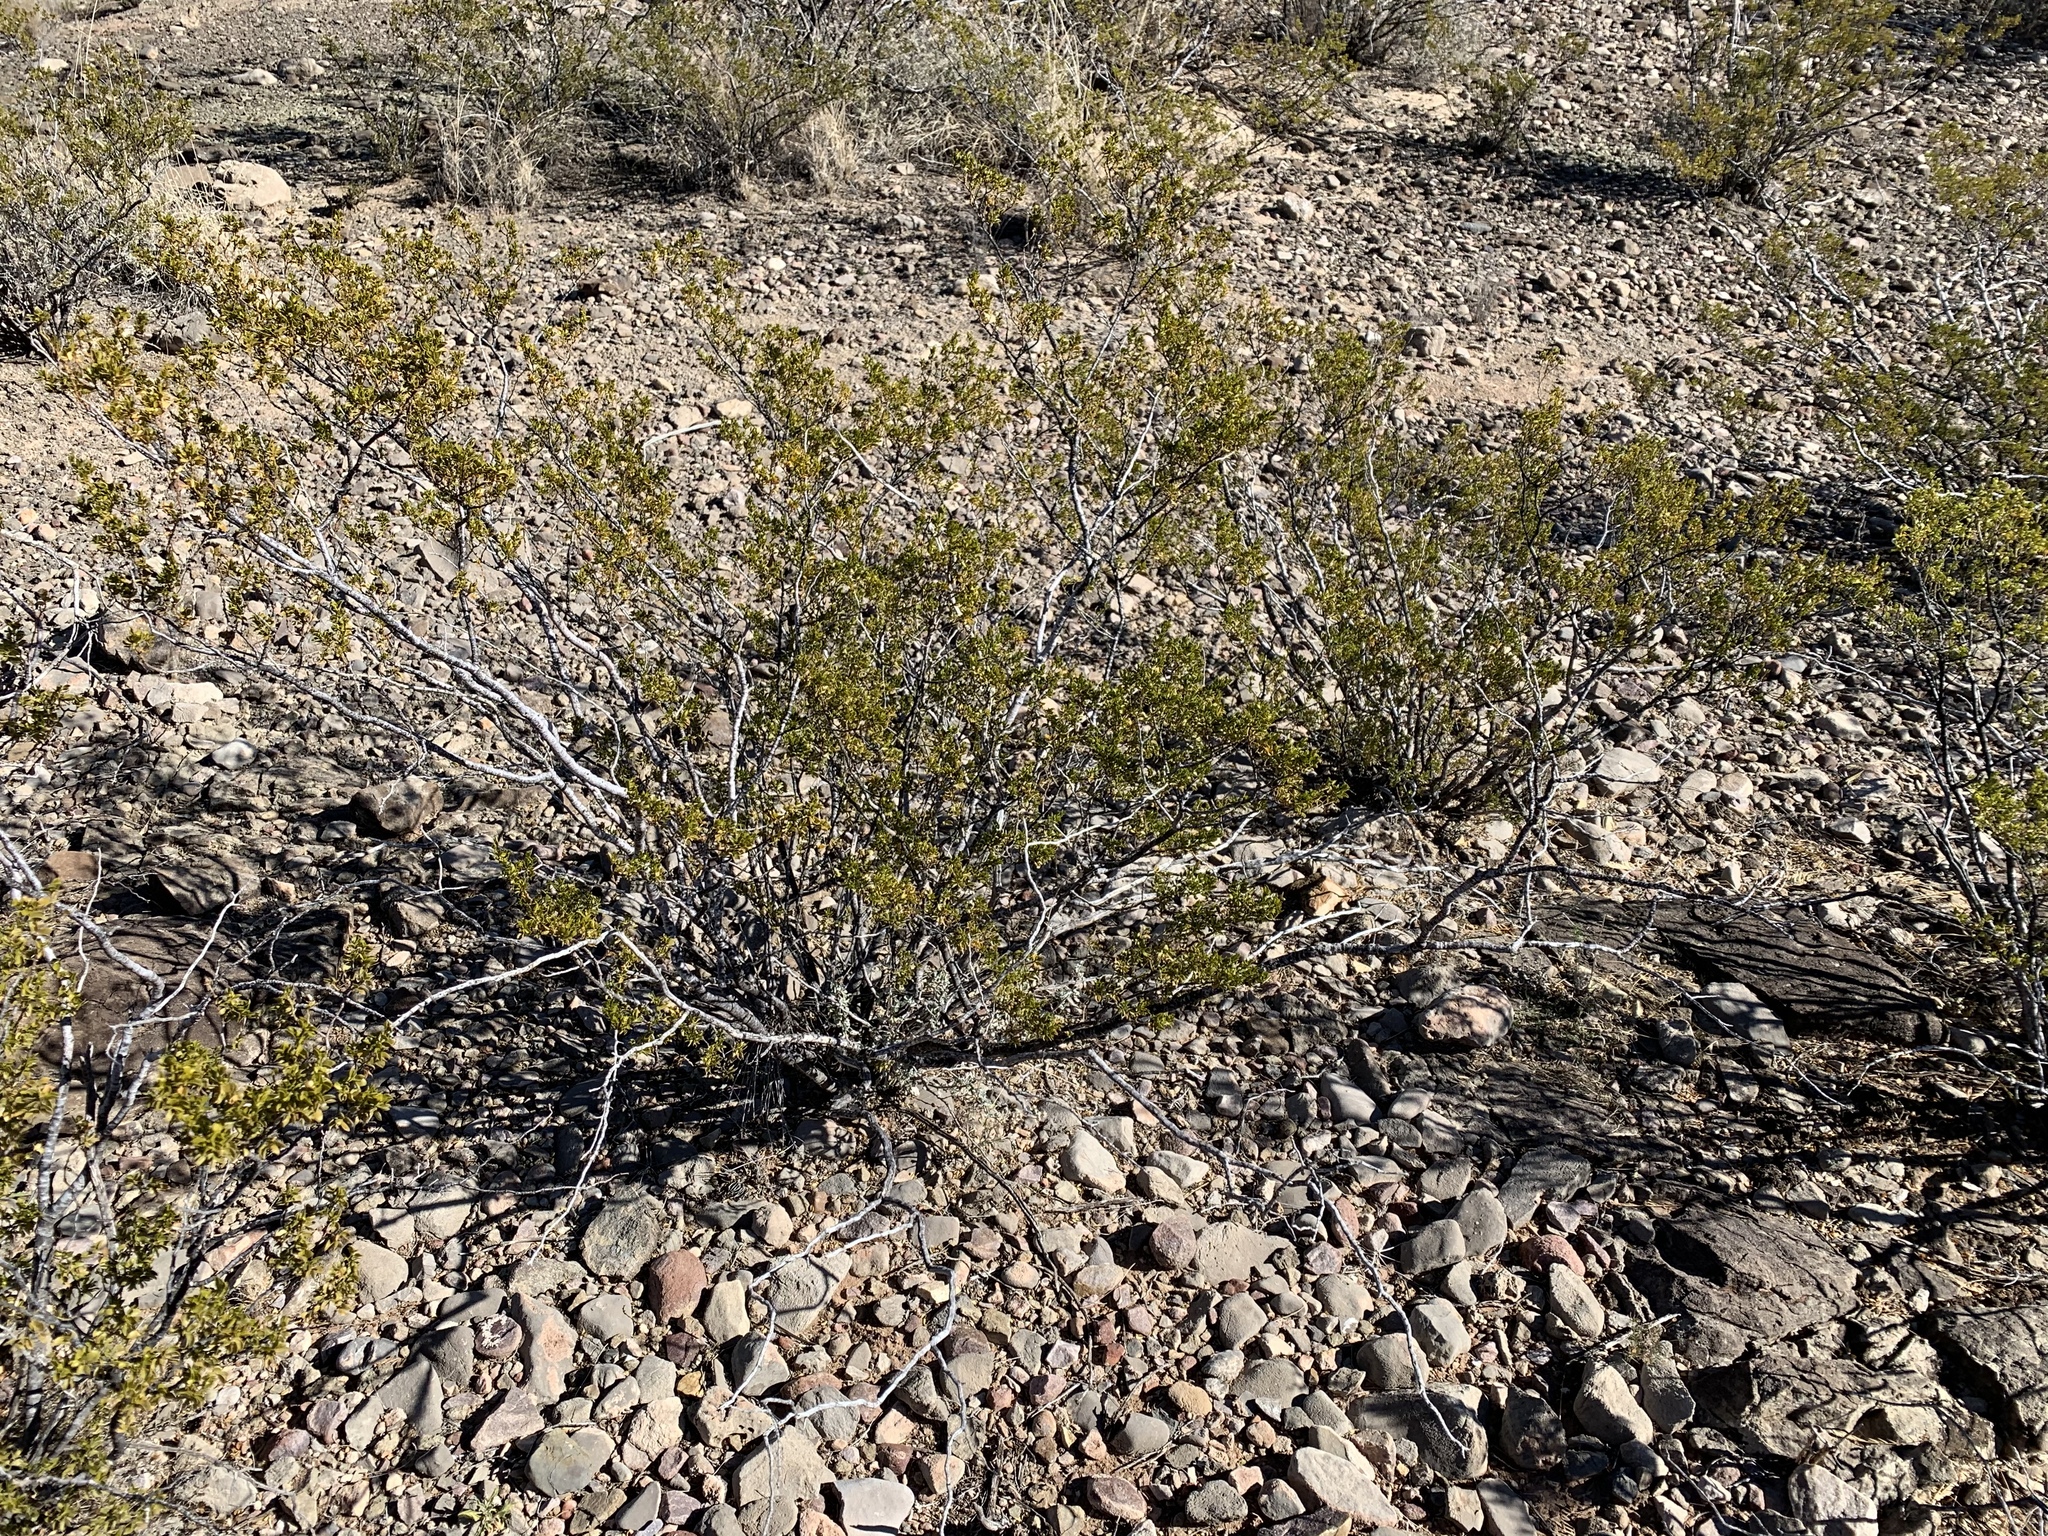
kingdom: Plantae
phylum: Tracheophyta
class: Magnoliopsida
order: Zygophyllales
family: Zygophyllaceae
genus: Larrea
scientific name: Larrea tridentata
